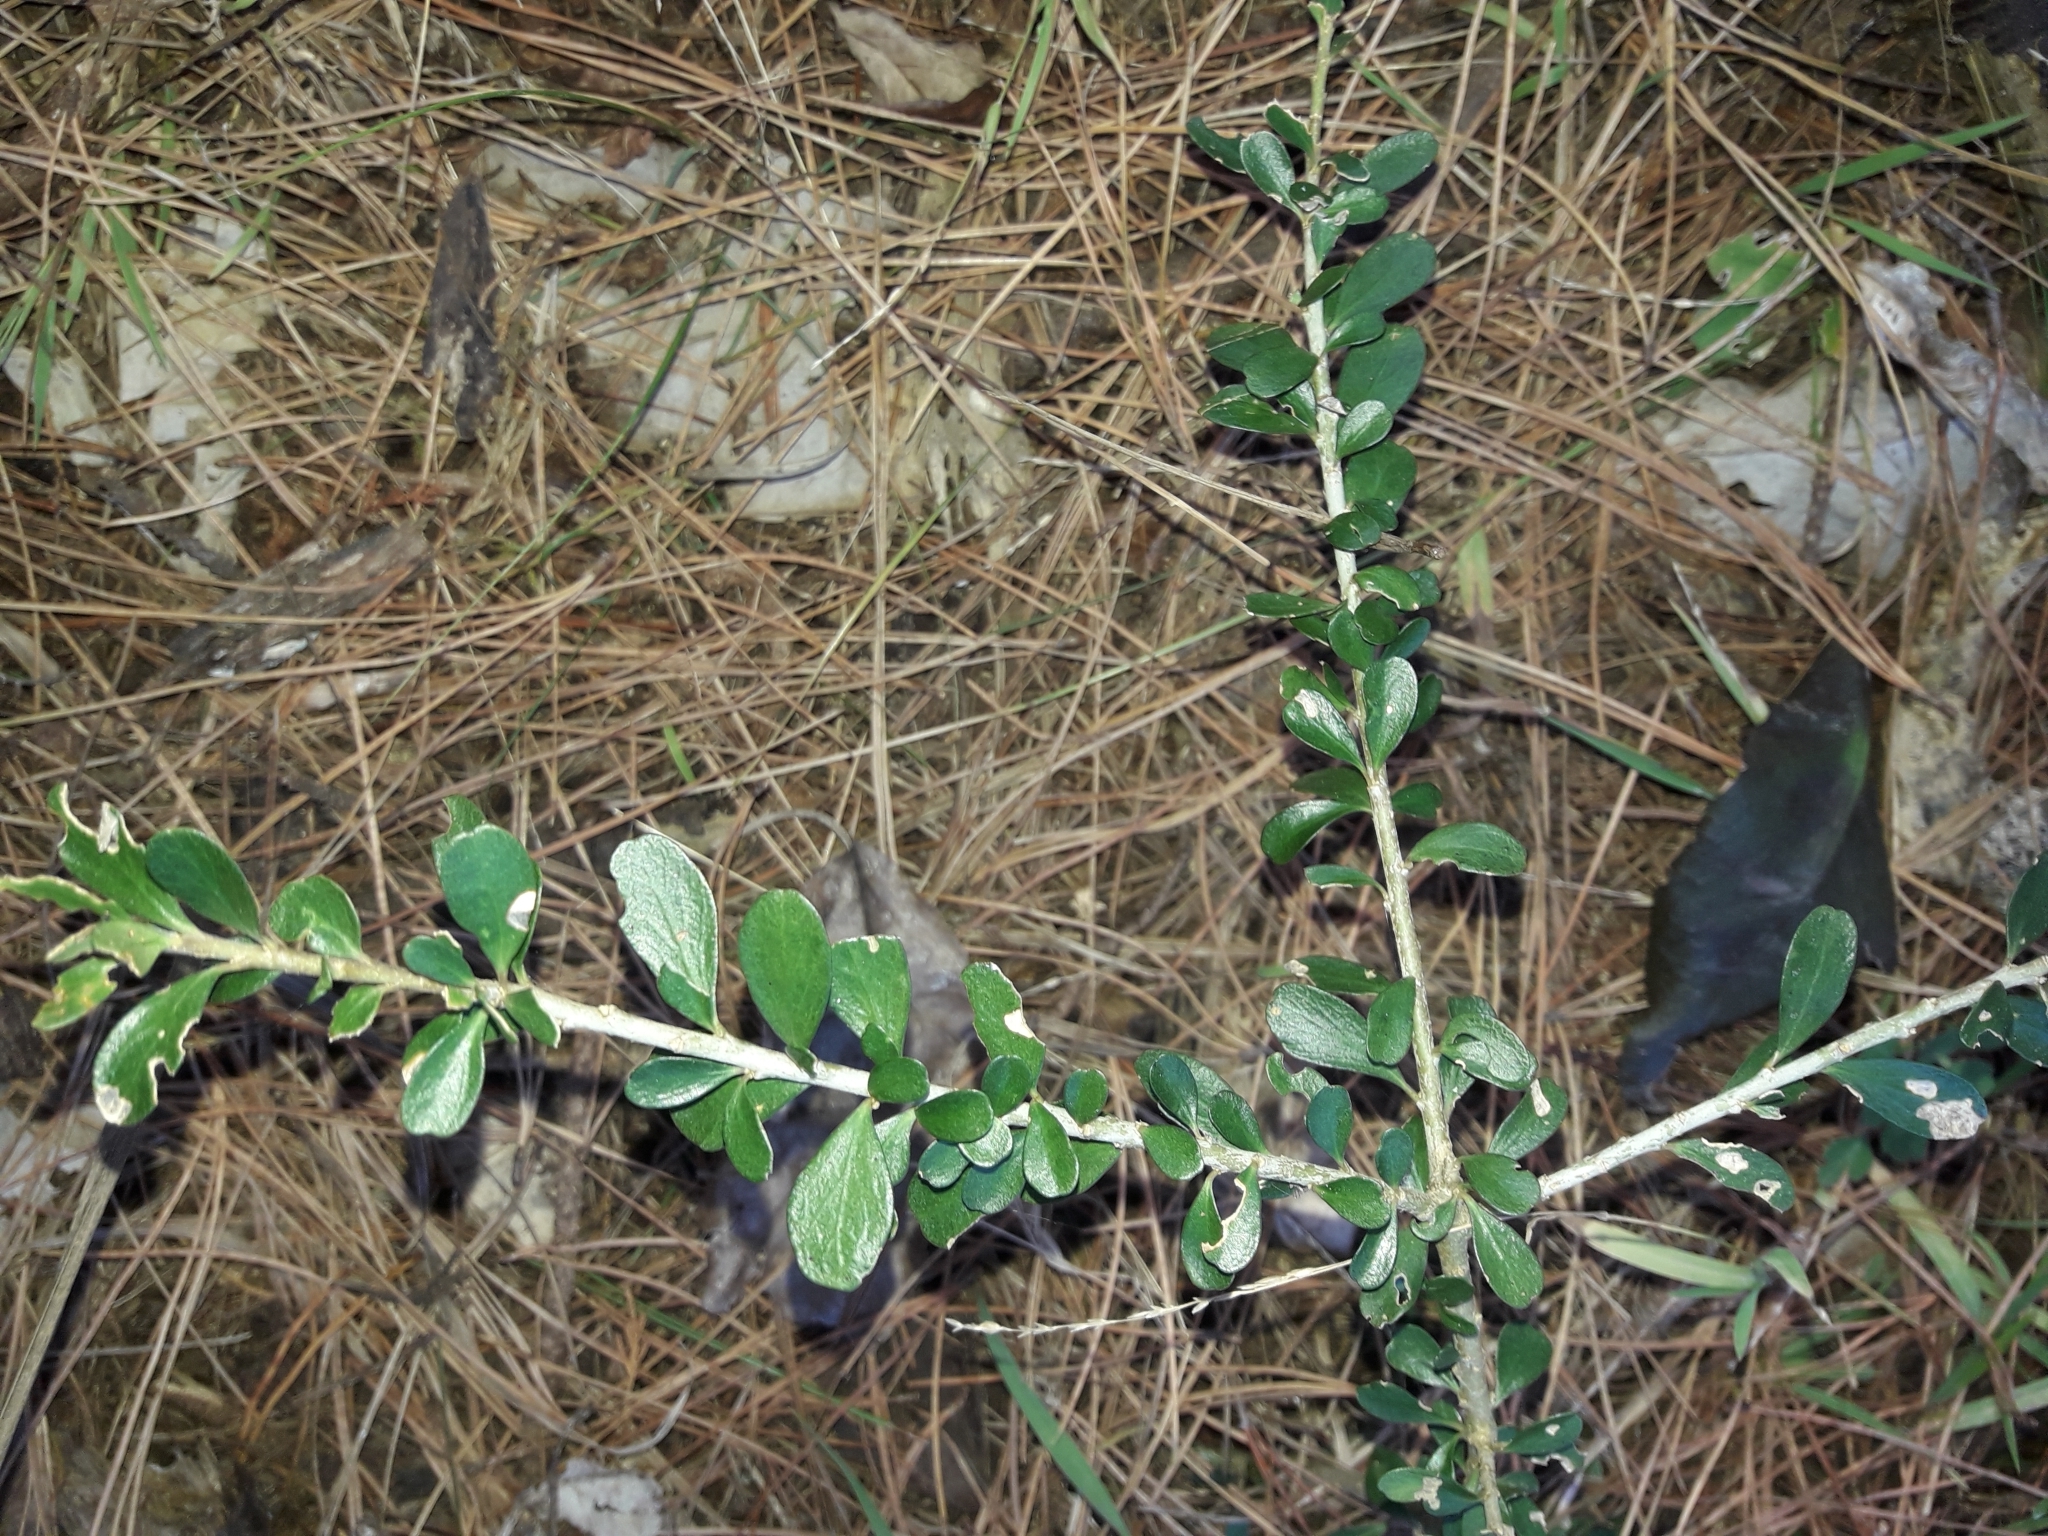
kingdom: Plantae
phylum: Tracheophyta
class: Magnoliopsida
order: Malpighiales
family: Violaceae
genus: Melicytus
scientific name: Melicytus crassifolius
